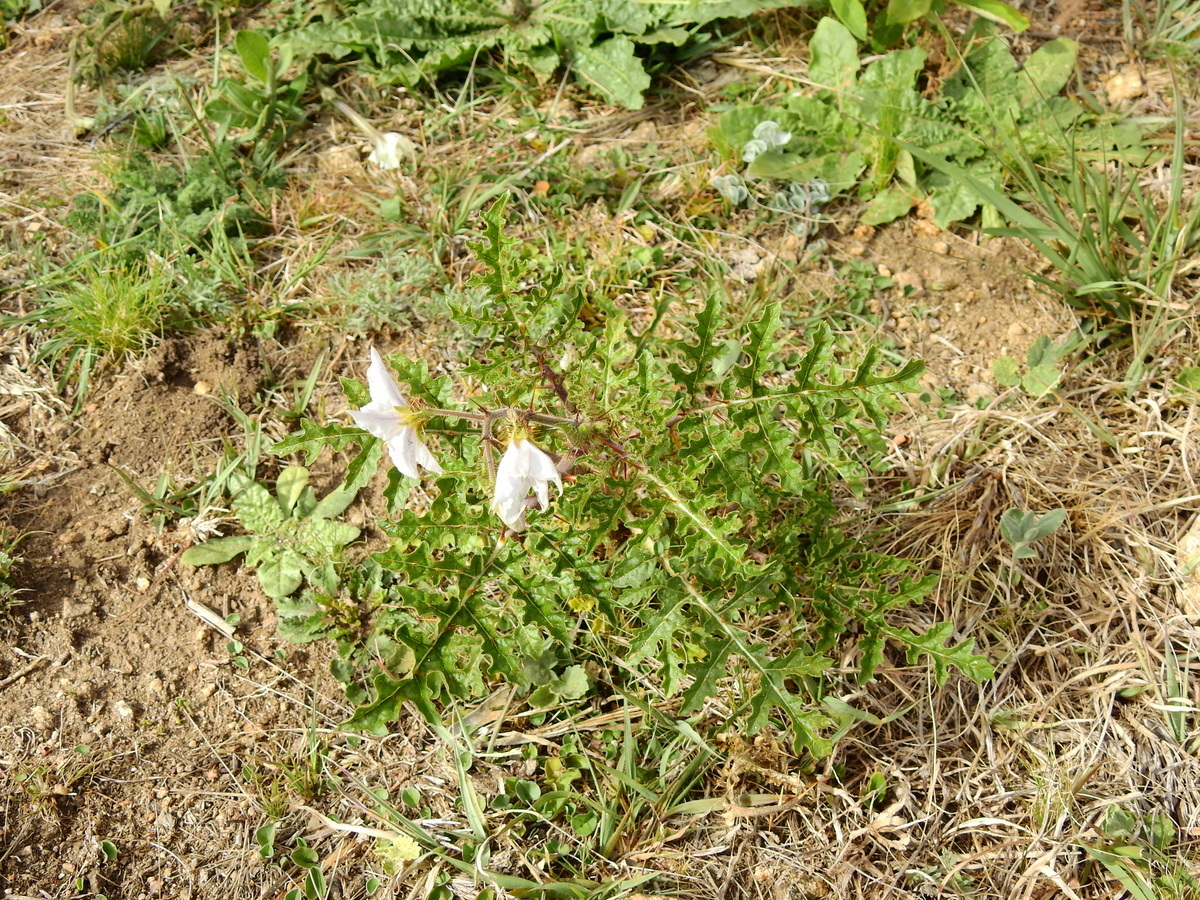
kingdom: Plantae
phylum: Tracheophyta
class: Magnoliopsida
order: Solanales
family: Solanaceae
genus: Solanum
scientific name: Solanum sisymbriifolium
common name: Red buffalo-bur
